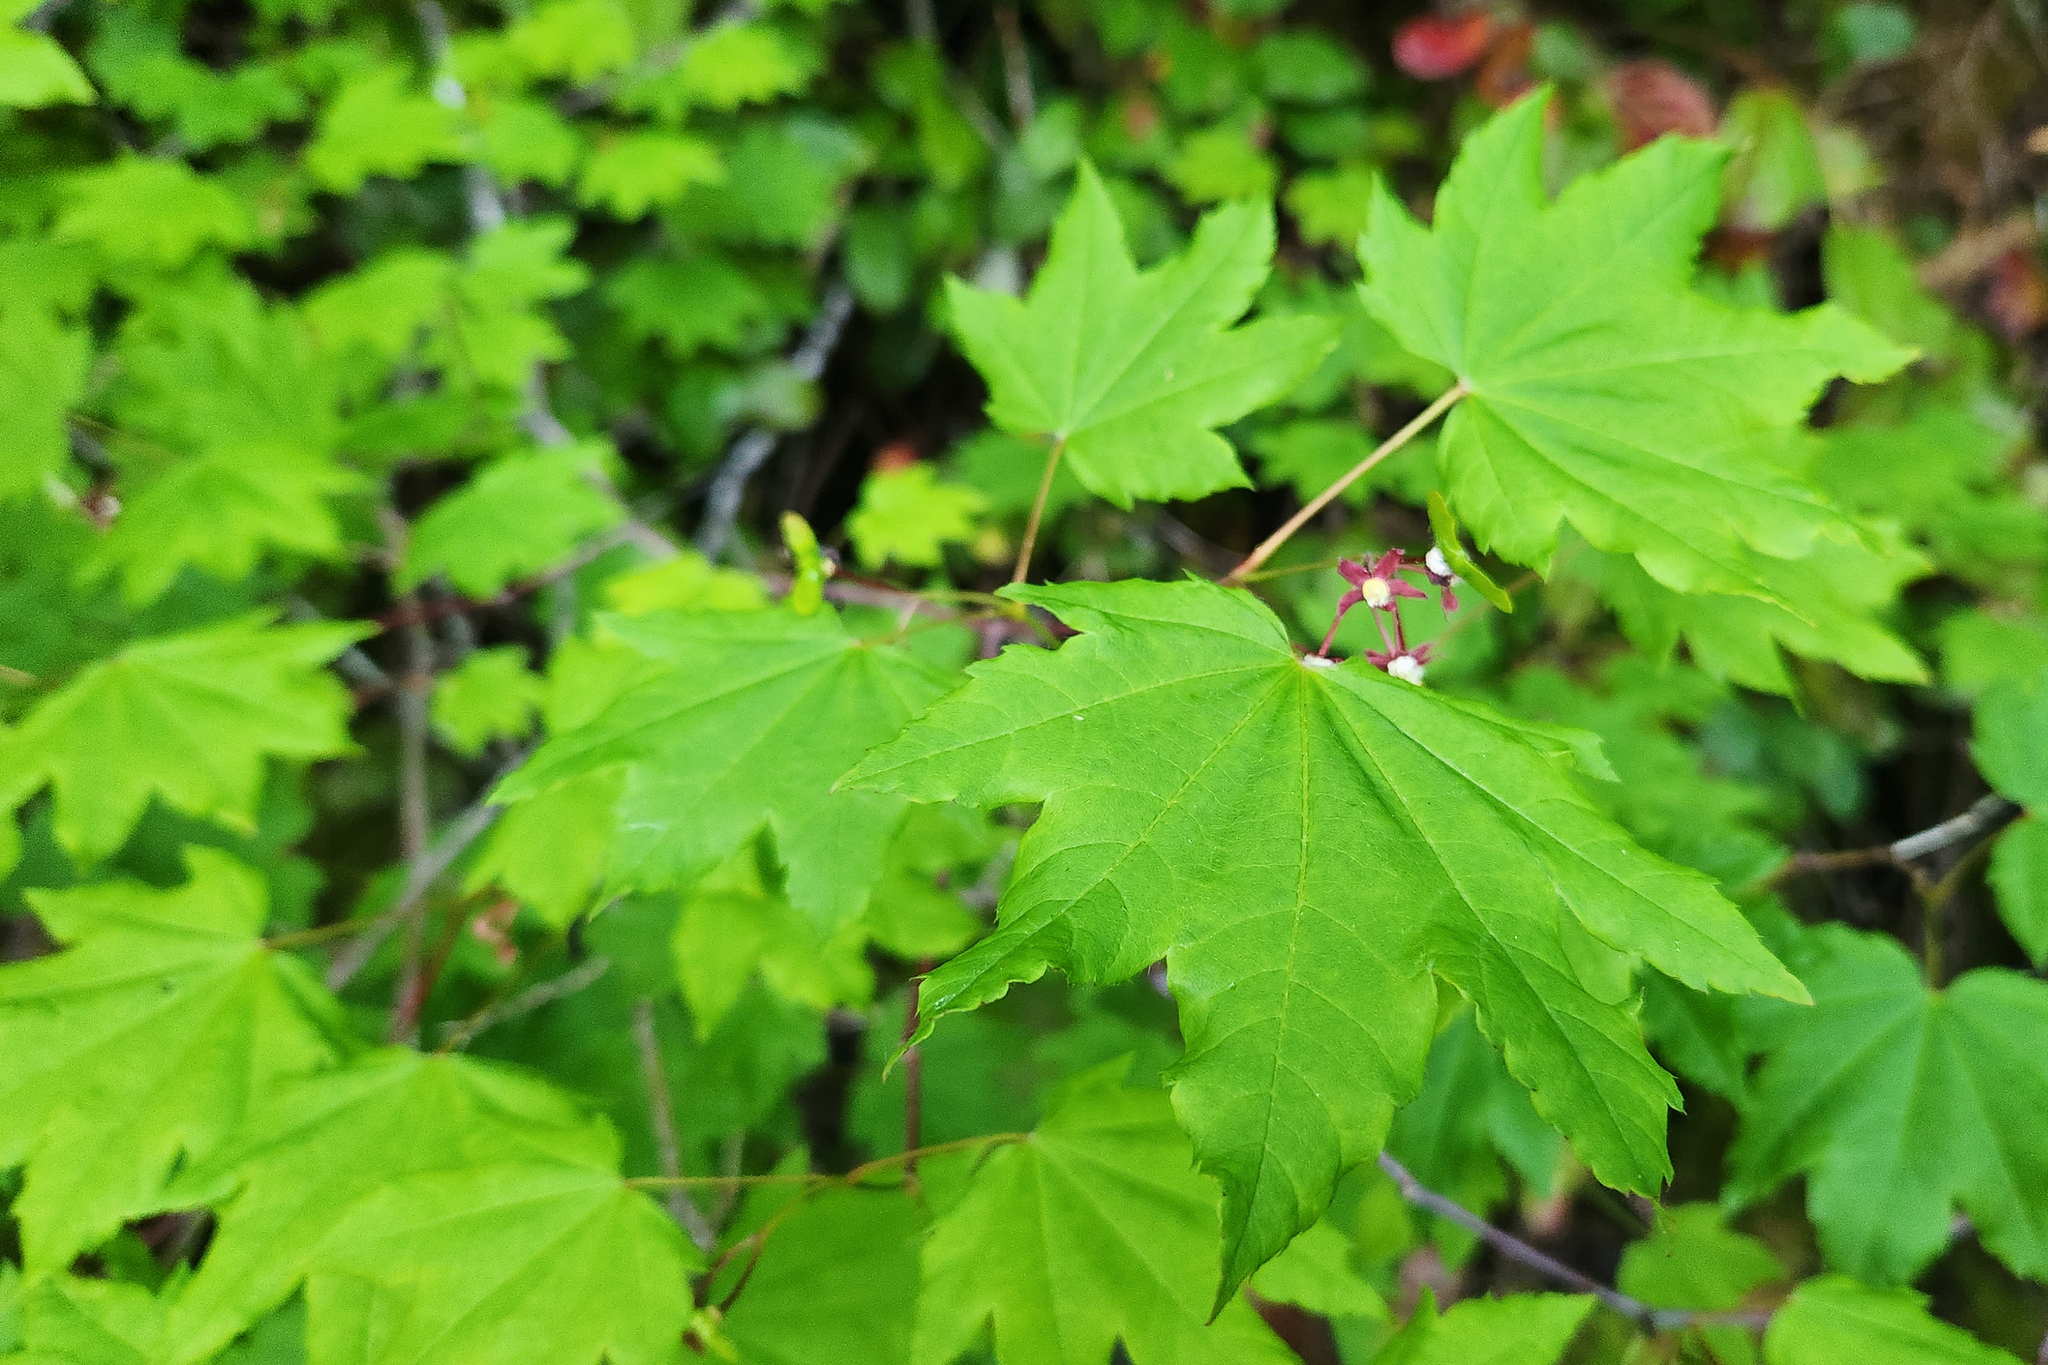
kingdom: Plantae
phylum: Tracheophyta
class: Magnoliopsida
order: Sapindales
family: Sapindaceae
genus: Acer
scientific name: Acer circinatum
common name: Vine maple
